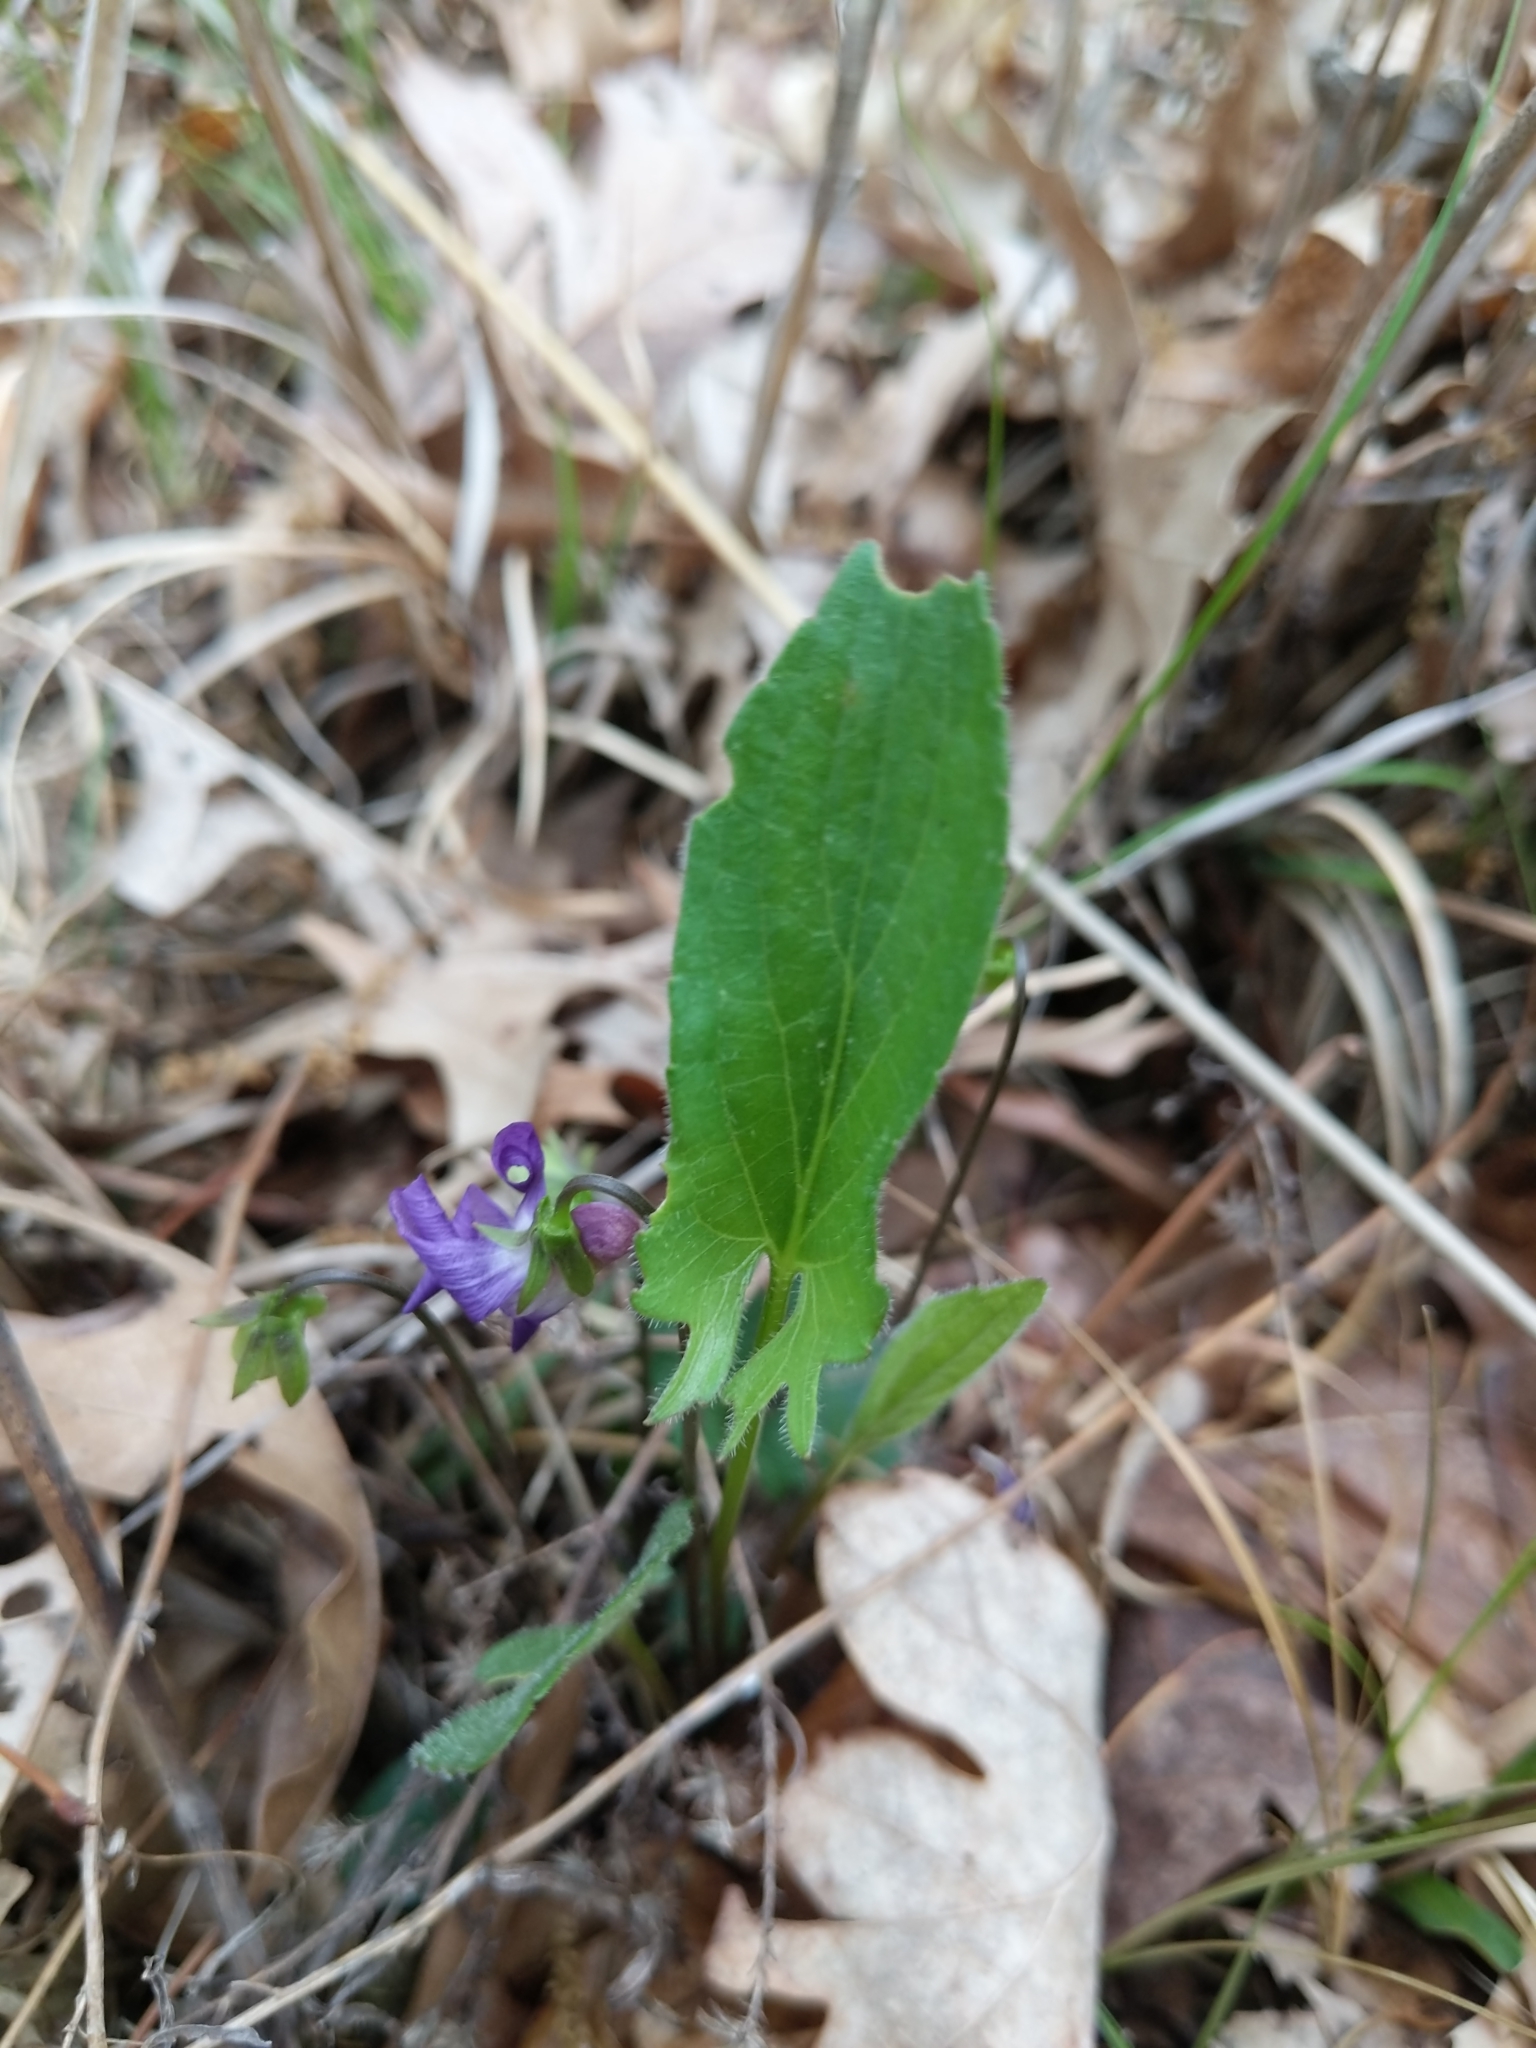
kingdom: Plantae
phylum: Tracheophyta
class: Magnoliopsida
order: Malpighiales
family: Violaceae
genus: Viola
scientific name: Viola sagittata
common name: Arrowhead violet
